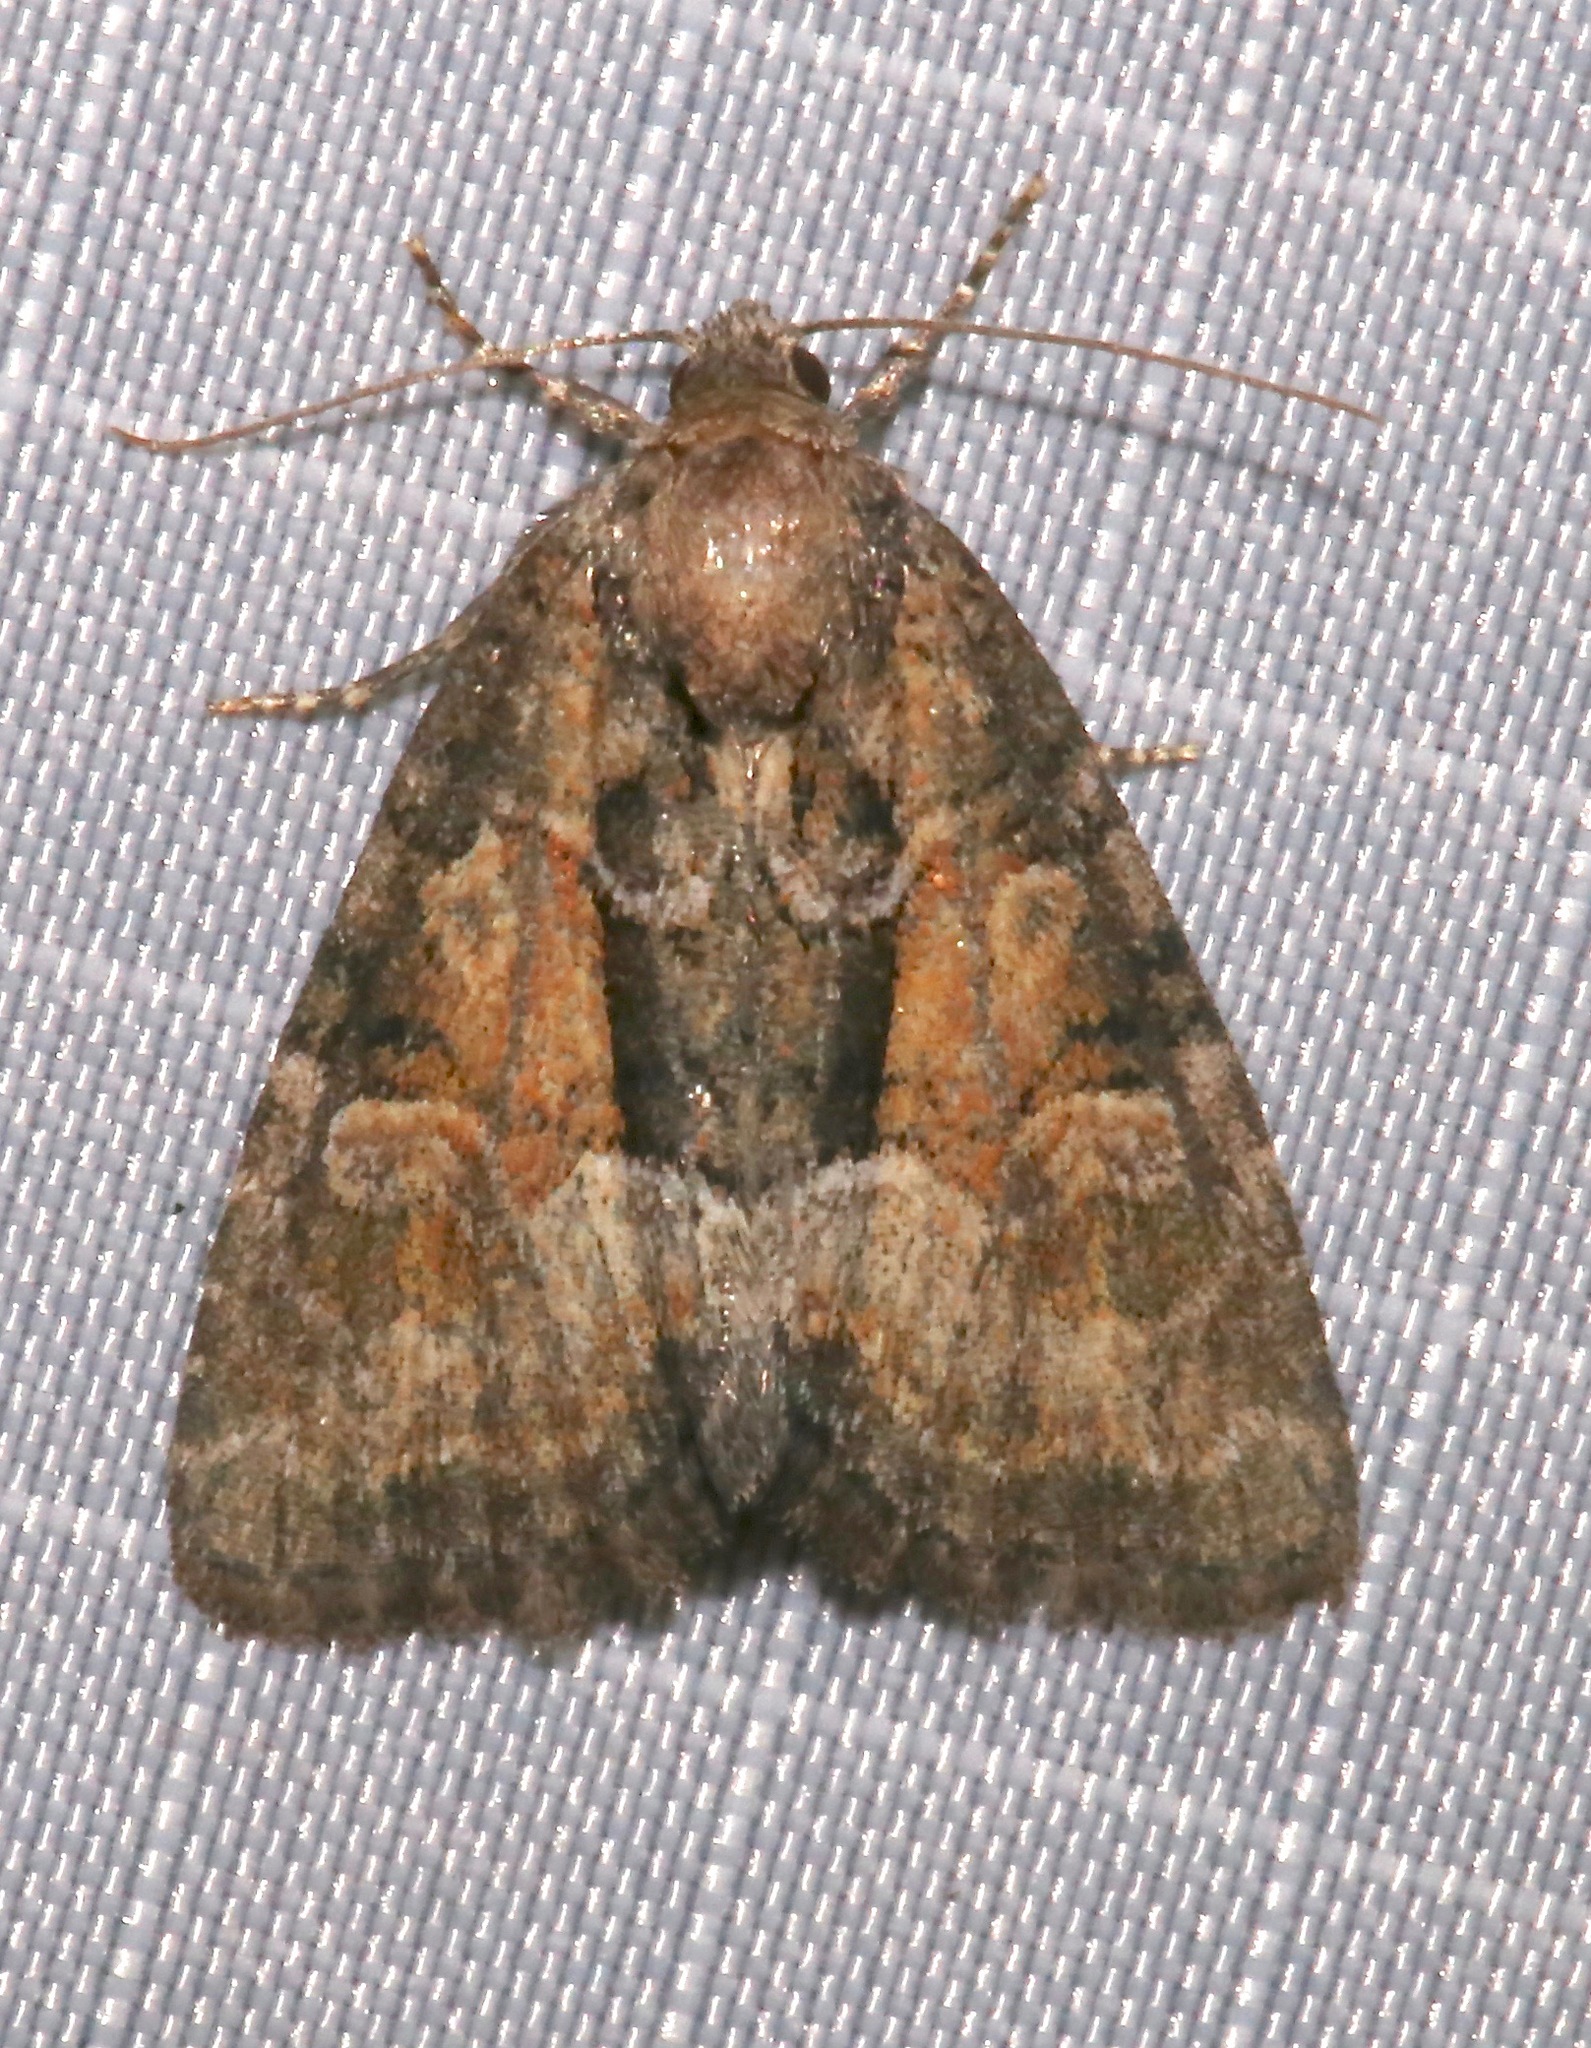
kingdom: Animalia
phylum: Arthropoda
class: Insecta
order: Lepidoptera
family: Noctuidae
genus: Neoligia
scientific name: Neoligia subjuncta
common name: Connected brocade
